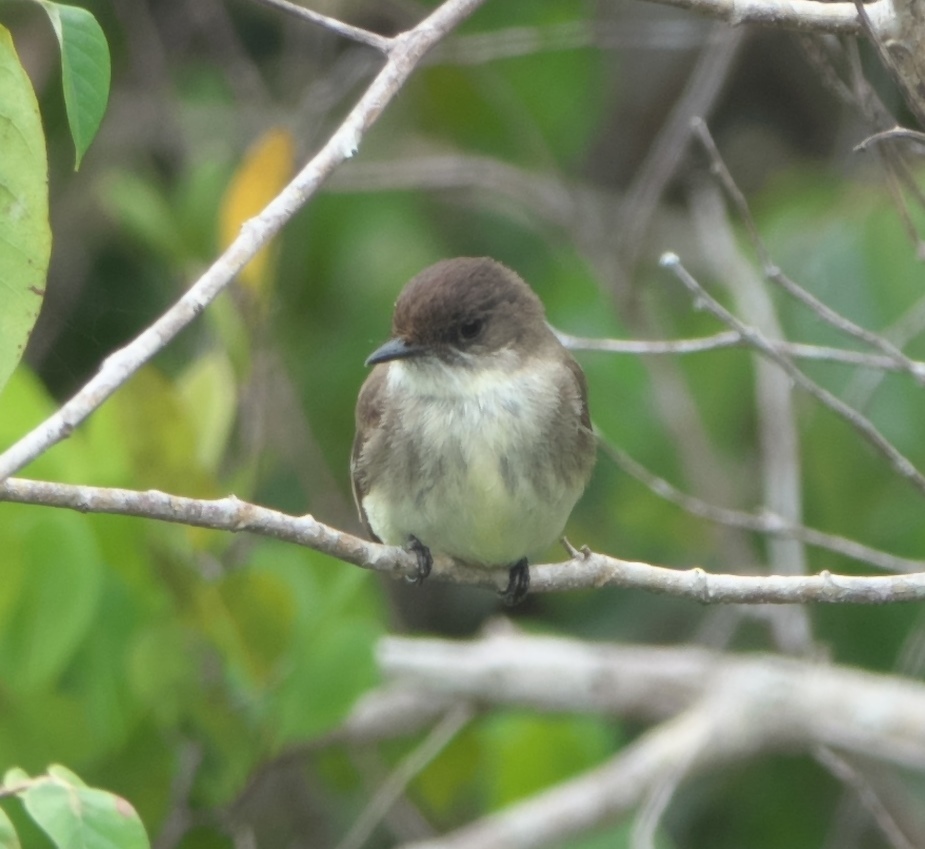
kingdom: Animalia
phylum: Chordata
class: Aves
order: Passeriformes
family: Tyrannidae
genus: Sayornis
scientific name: Sayornis phoebe
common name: Eastern phoebe
